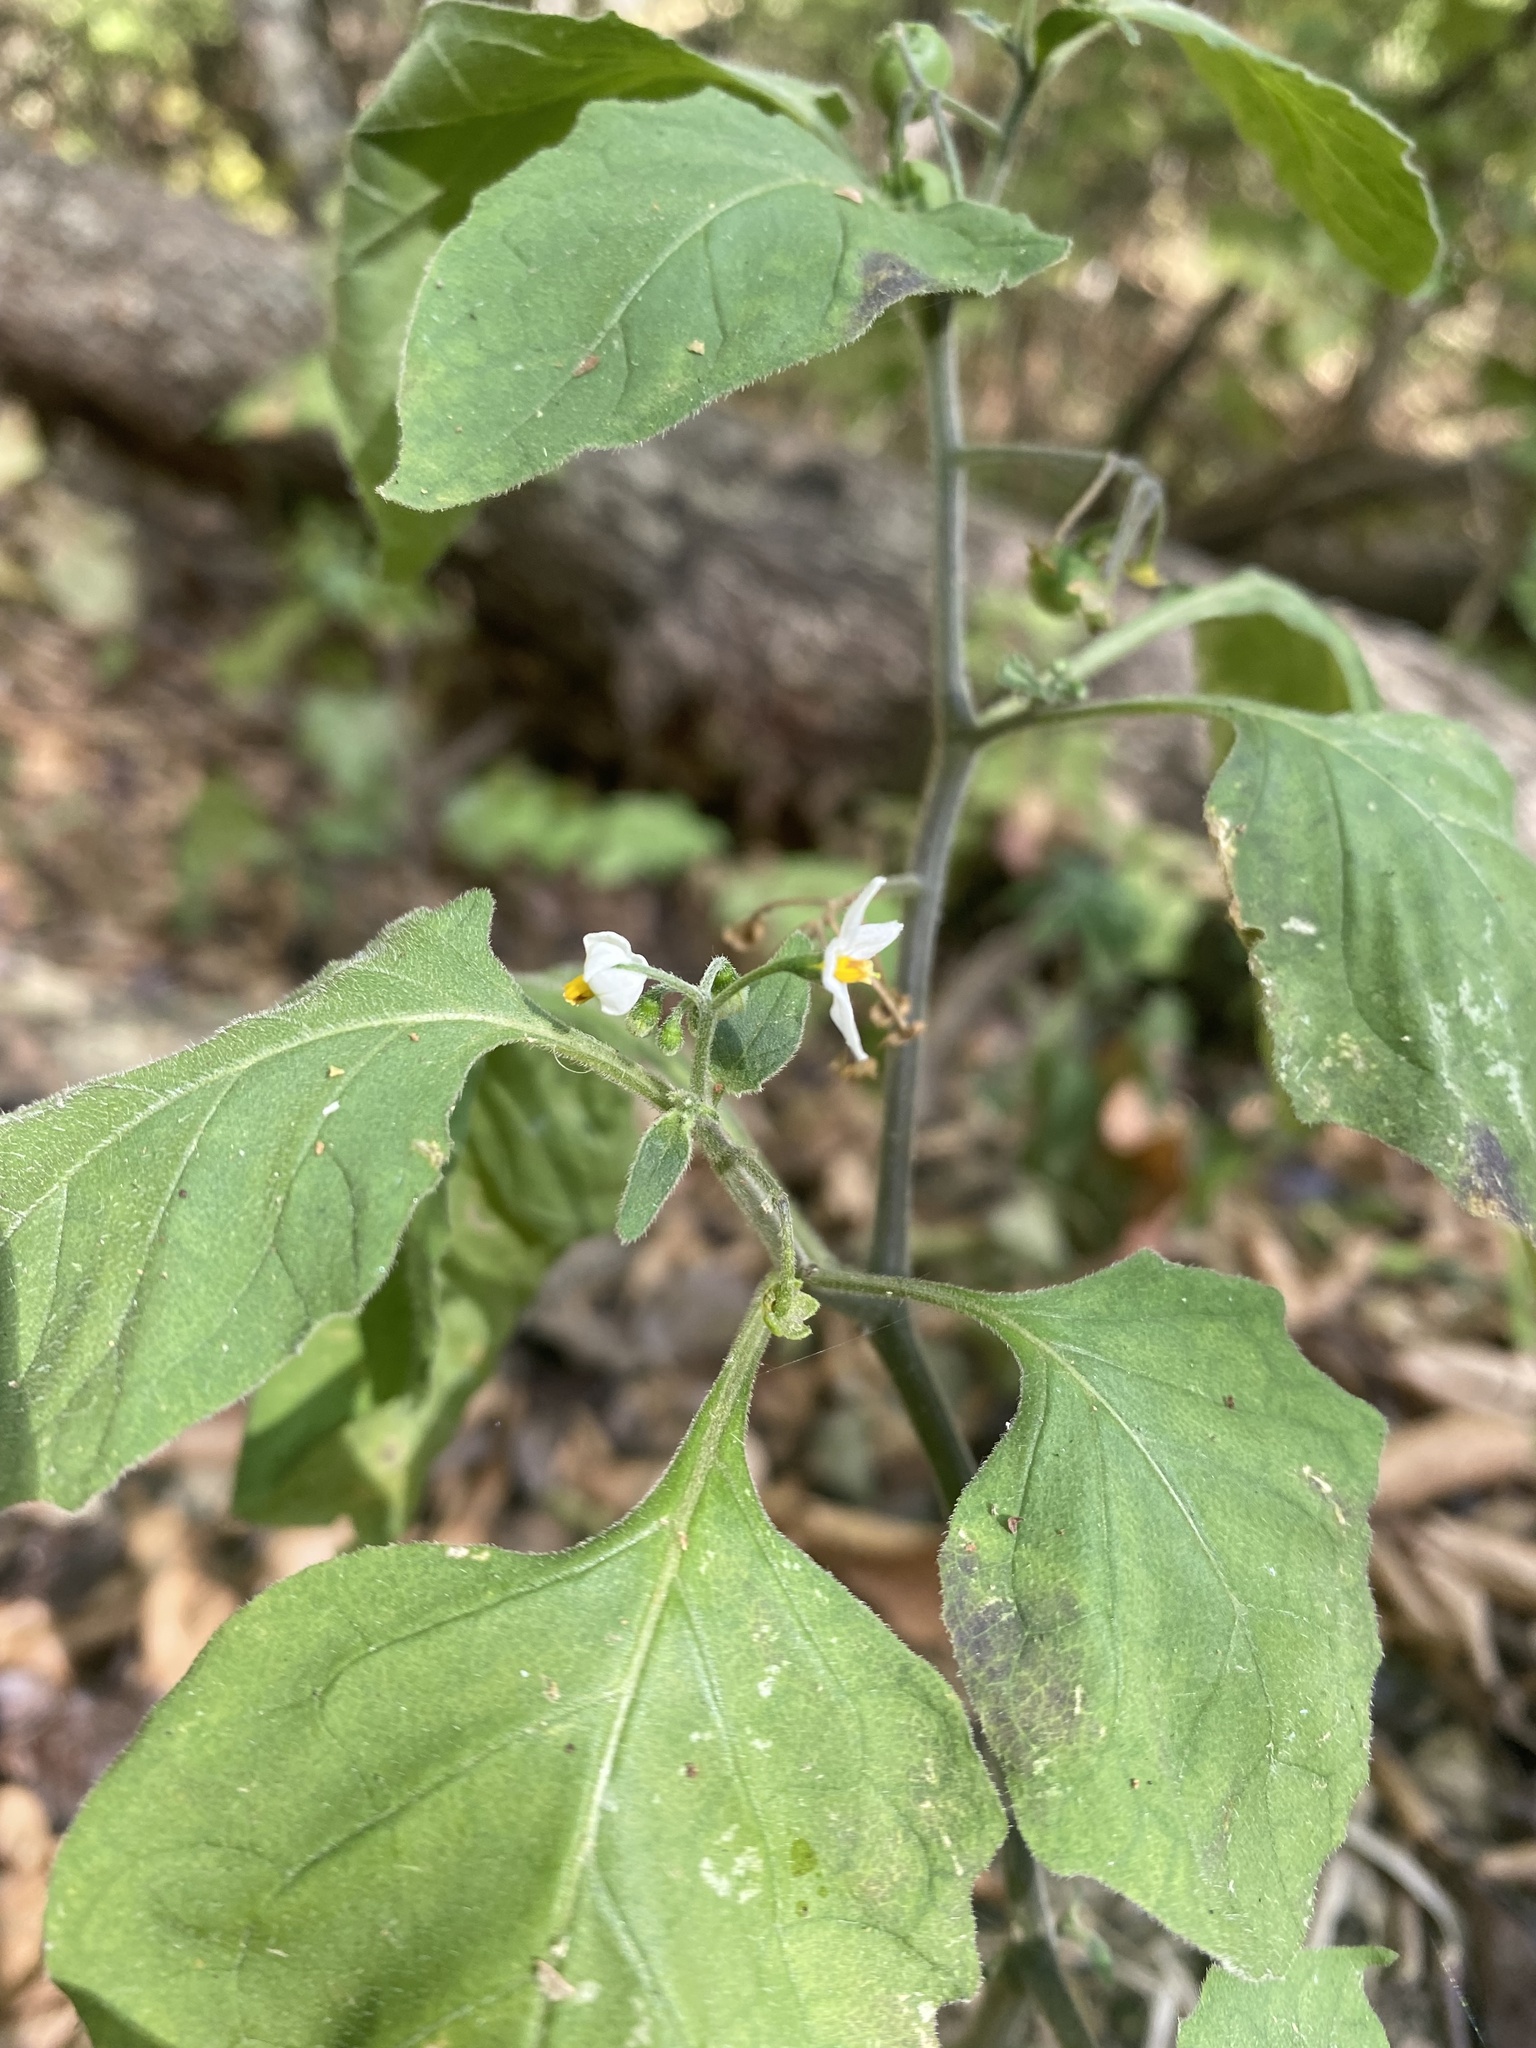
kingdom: Plantae
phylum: Tracheophyta
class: Magnoliopsida
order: Solanales
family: Solanaceae
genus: Solanum
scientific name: Solanum nigrum
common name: Black nightshade
